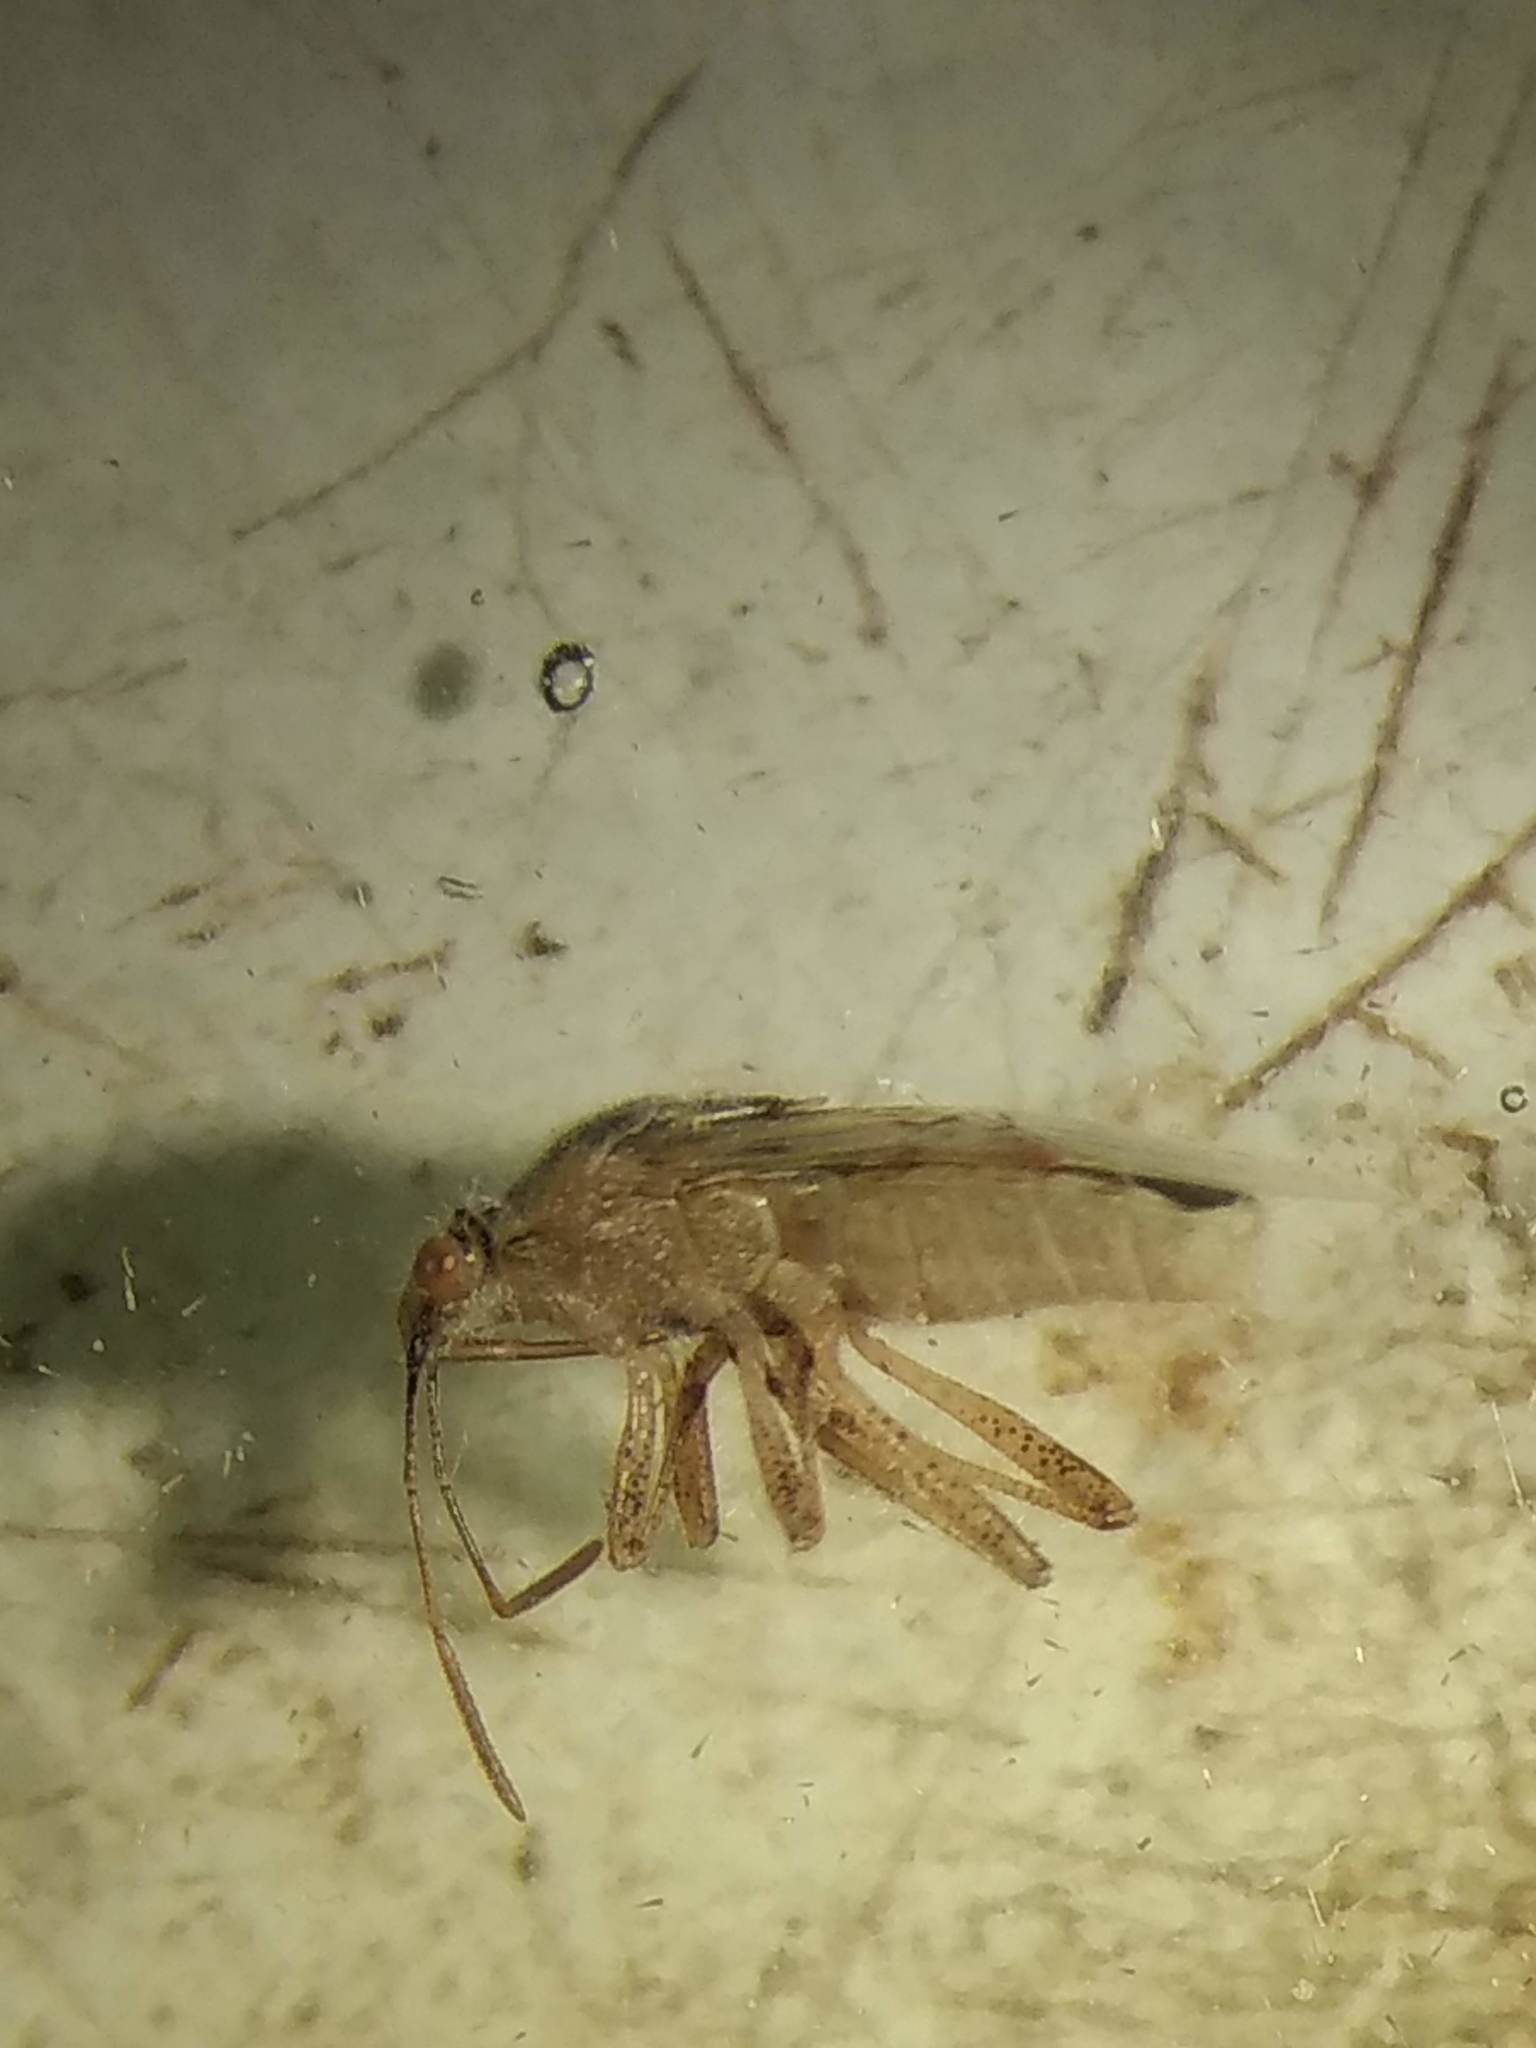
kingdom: Animalia
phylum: Arthropoda
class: Insecta
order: Hemiptera
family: Rhopalidae
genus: Liorhyssus
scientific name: Liorhyssus hyalinus
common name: Scentless plant bug
